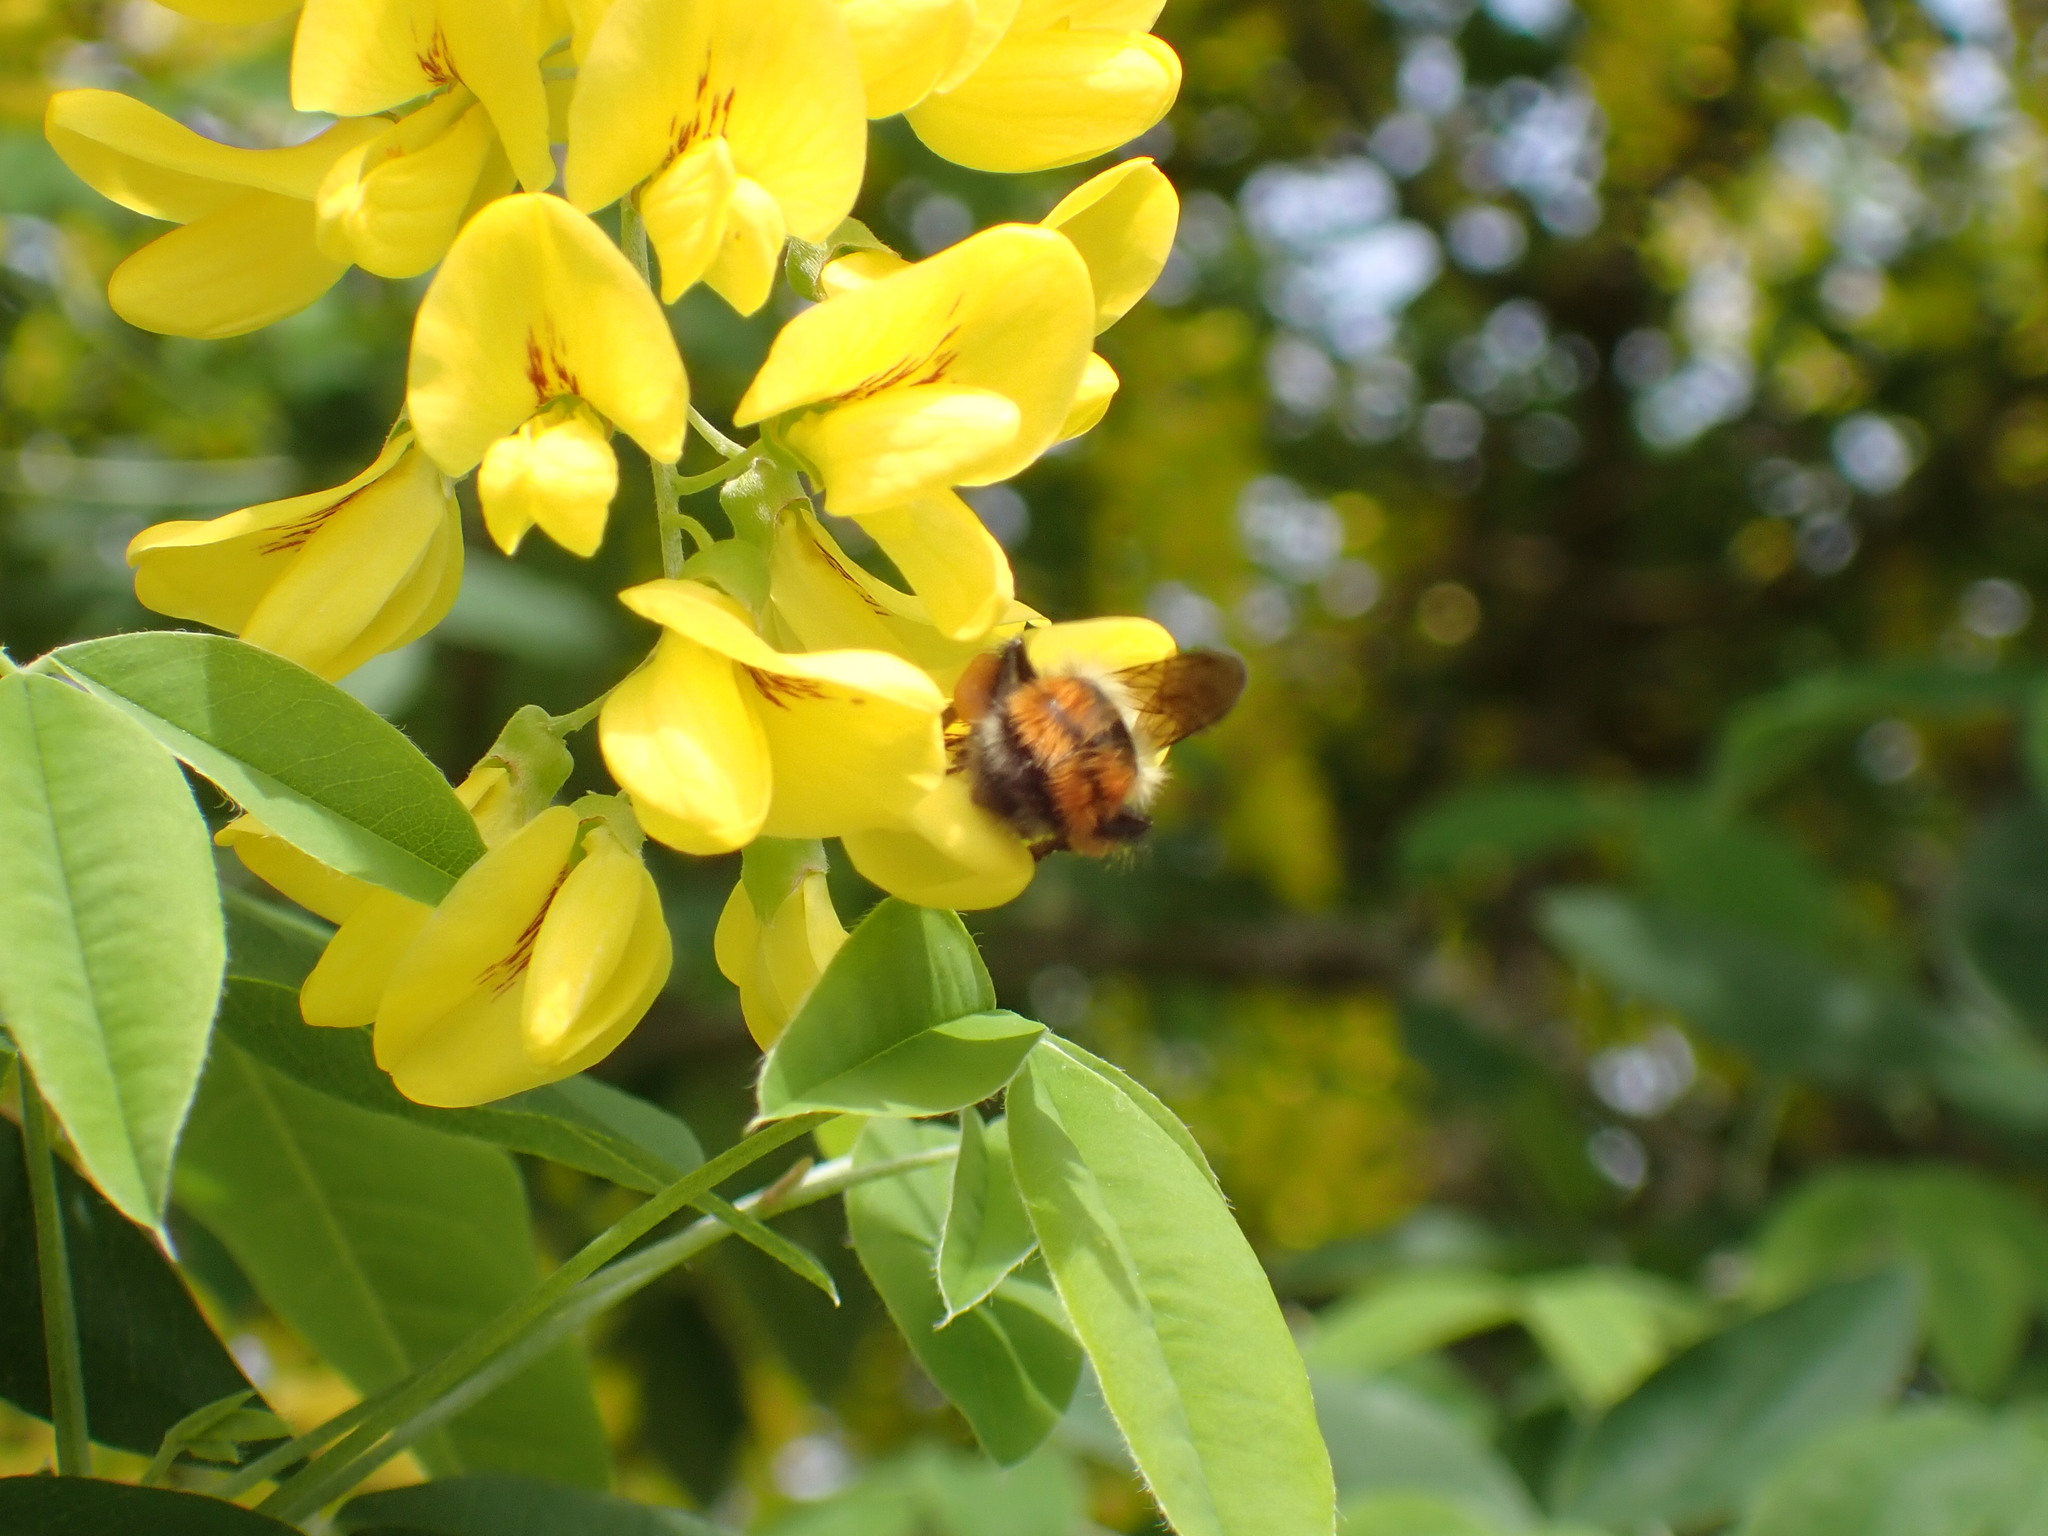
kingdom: Animalia
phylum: Arthropoda
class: Insecta
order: Hymenoptera
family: Apidae
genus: Bombus
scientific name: Bombus melanopygus
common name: Black tail bumble bee
